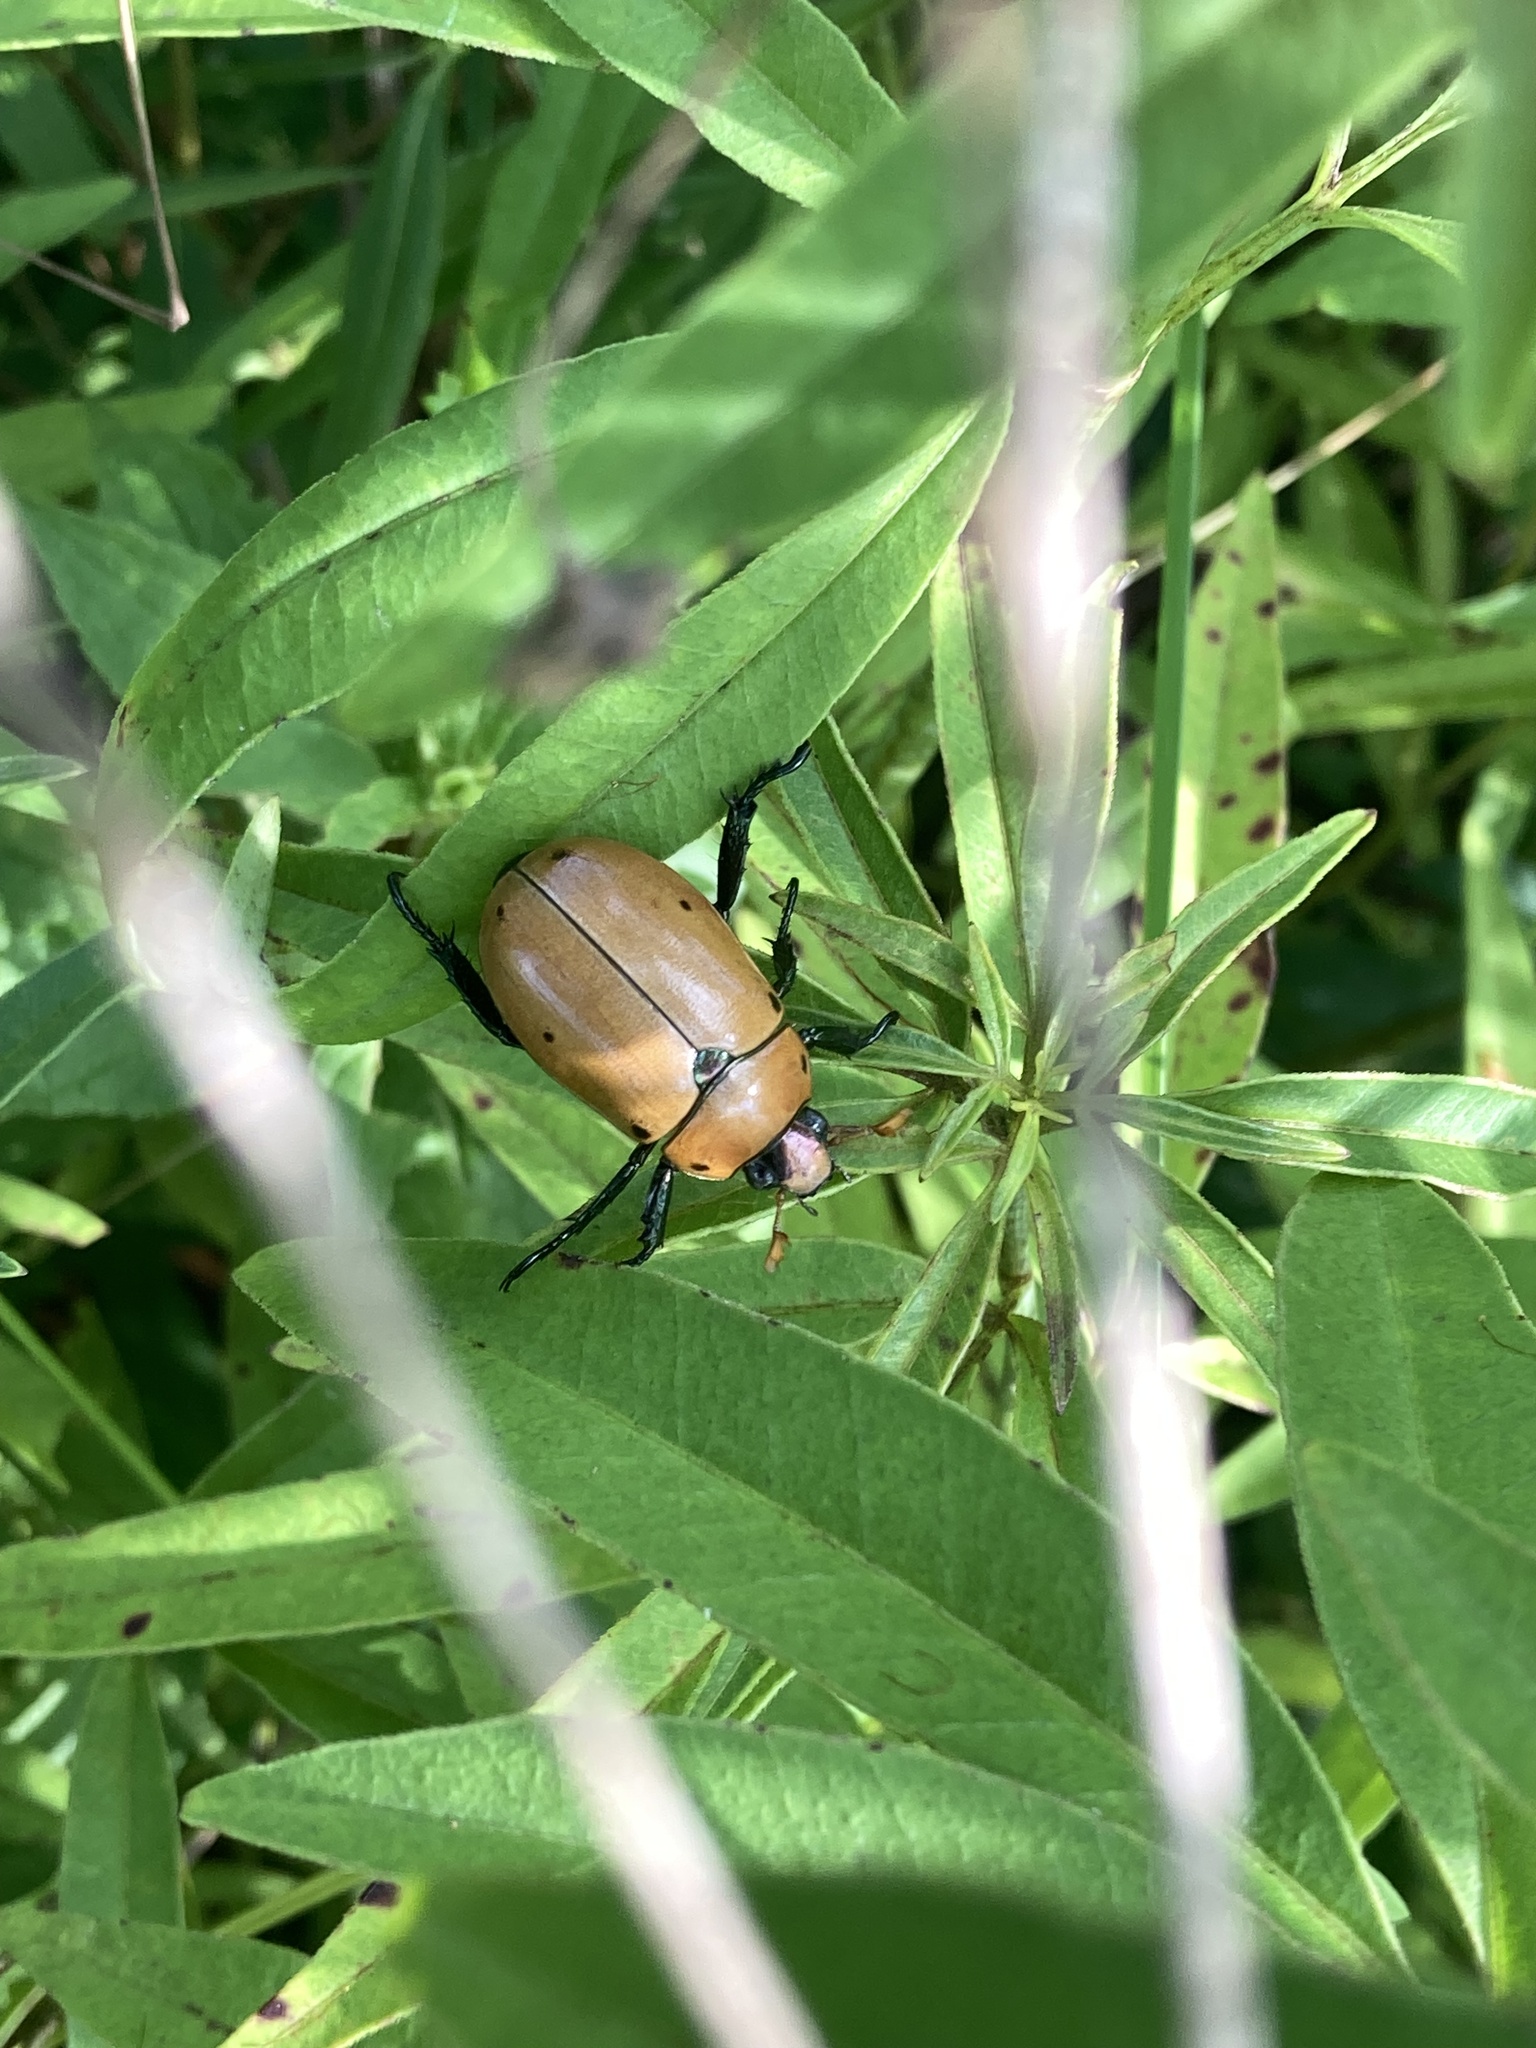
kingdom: Animalia
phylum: Arthropoda
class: Insecta
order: Coleoptera
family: Scarabaeidae
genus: Pelidnota
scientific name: Pelidnota punctata
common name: Grapevine beetle
